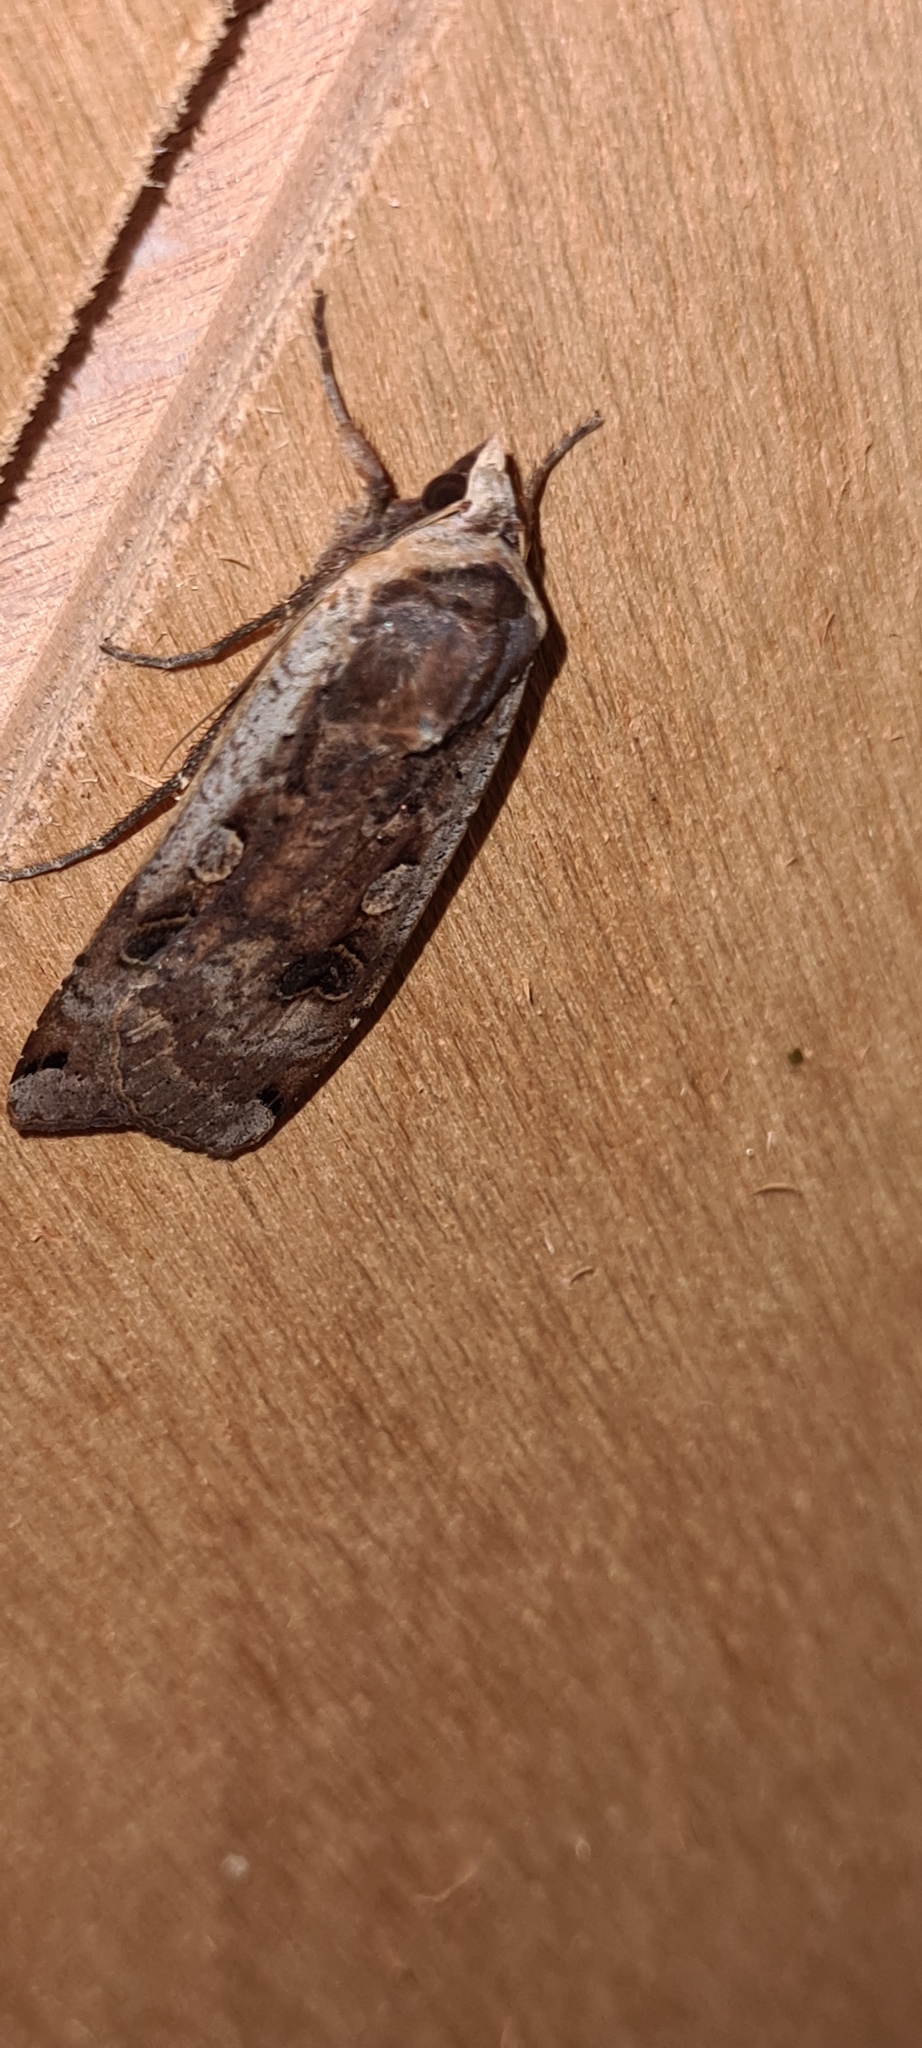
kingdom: Animalia
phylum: Arthropoda
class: Insecta
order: Lepidoptera
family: Noctuidae
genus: Noctua
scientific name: Noctua pronuba
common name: Large yellow underwing
